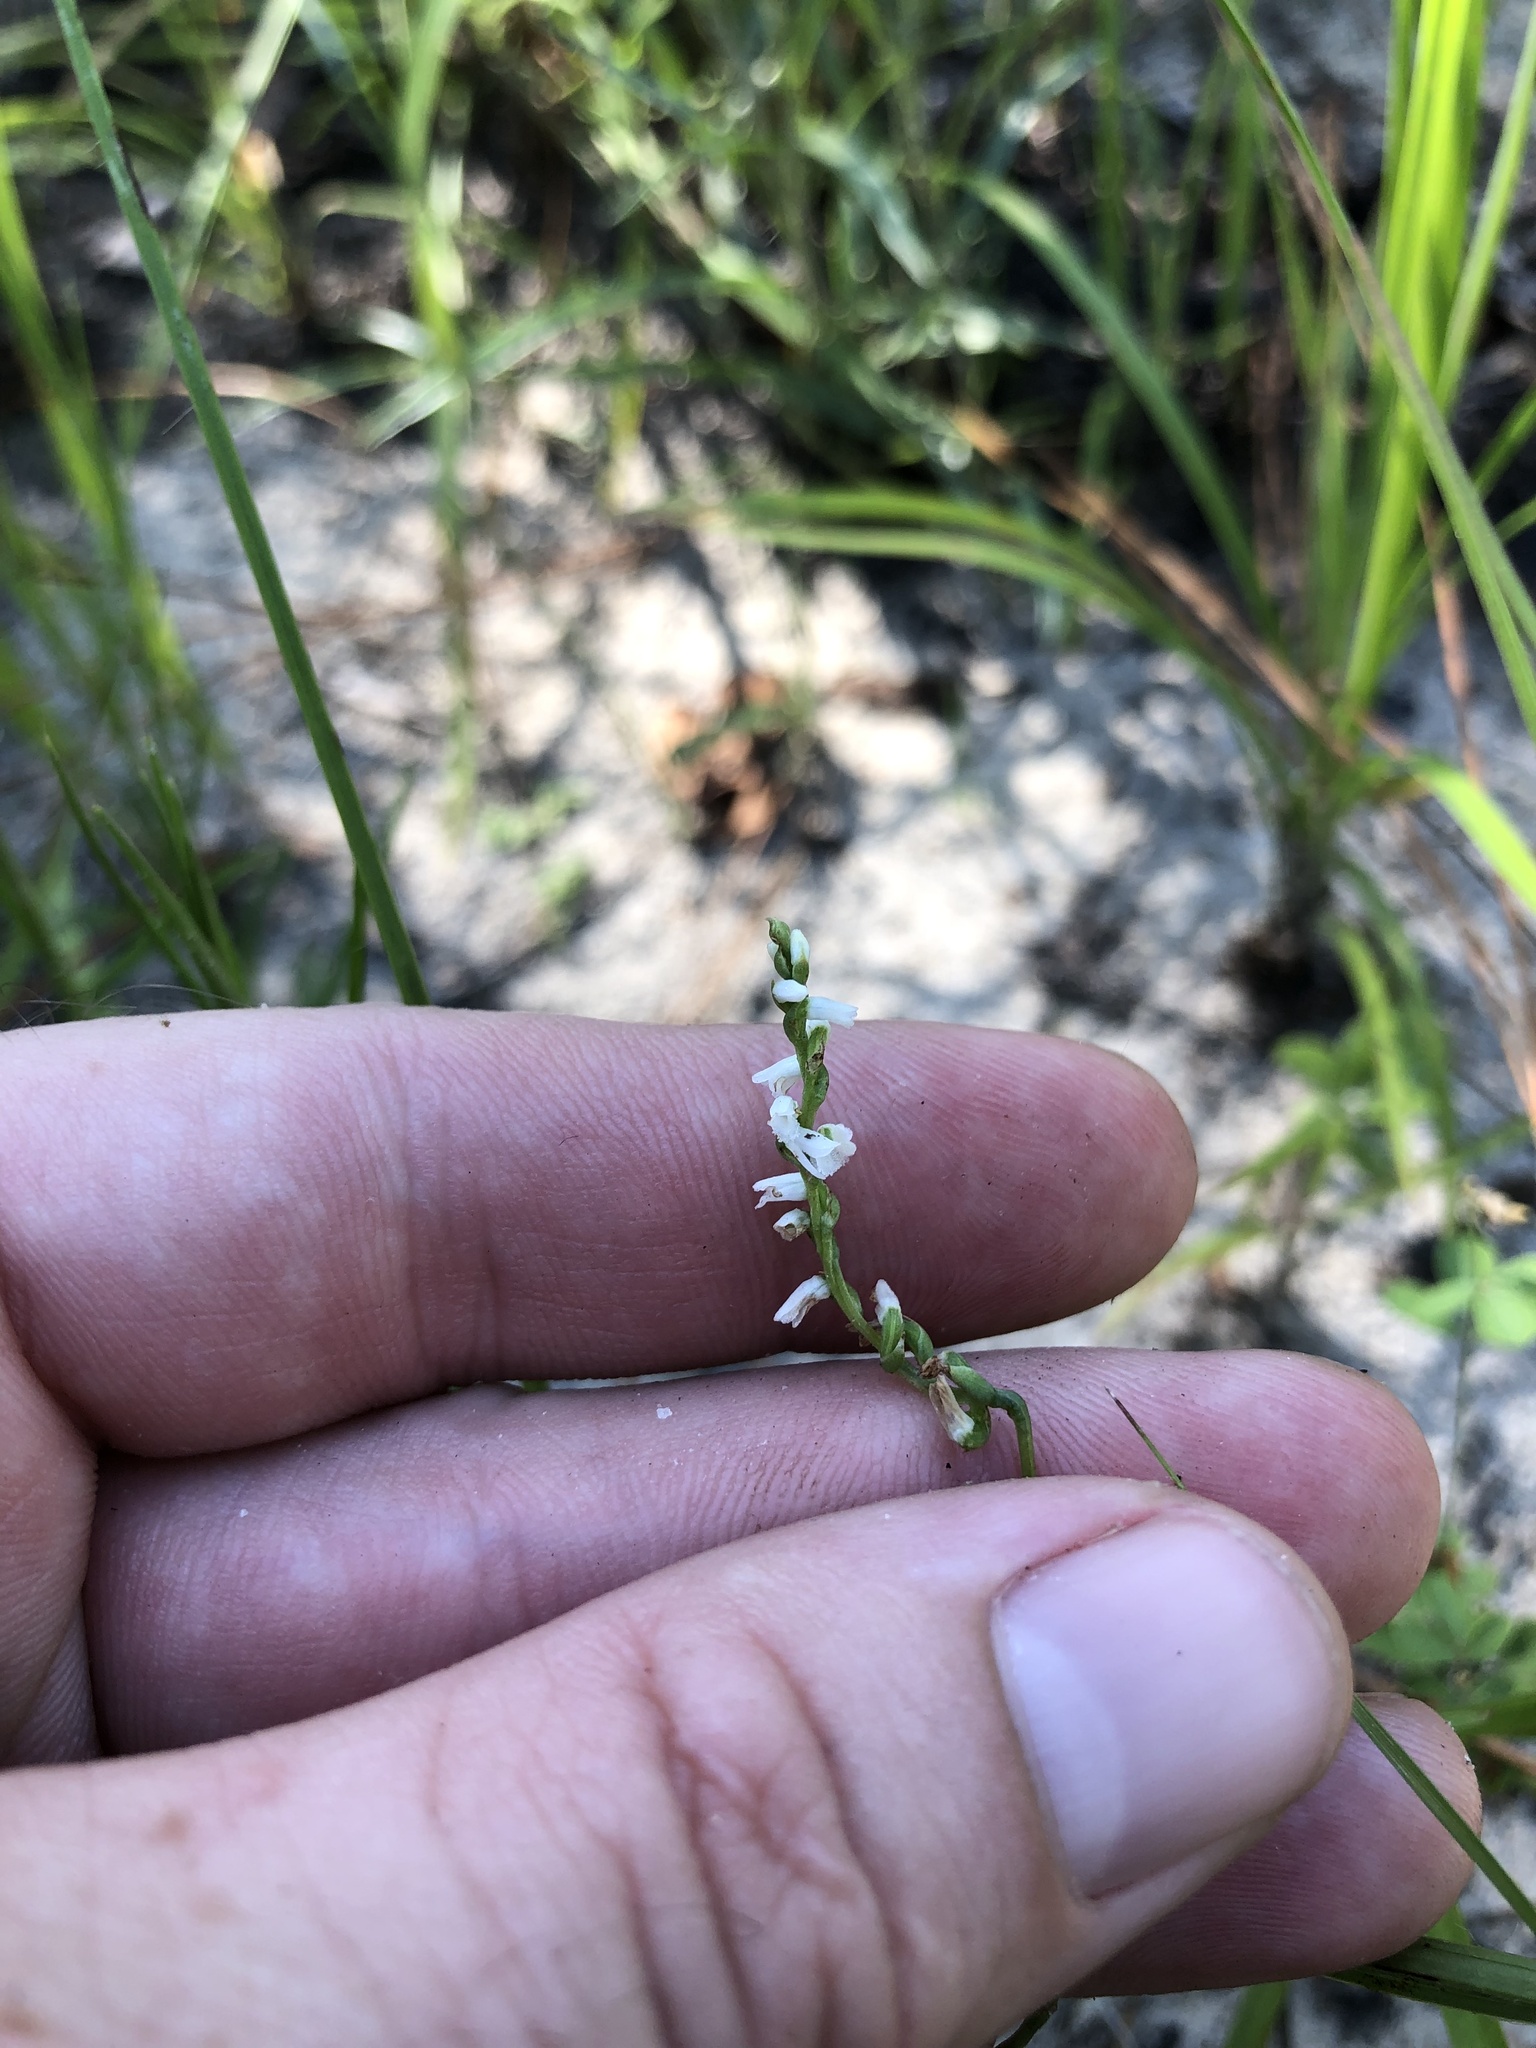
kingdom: Plantae
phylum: Tracheophyta
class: Liliopsida
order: Asparagales
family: Orchidaceae
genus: Spiranthes
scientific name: Spiranthes tuberosa
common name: Little ladies'-tresses
